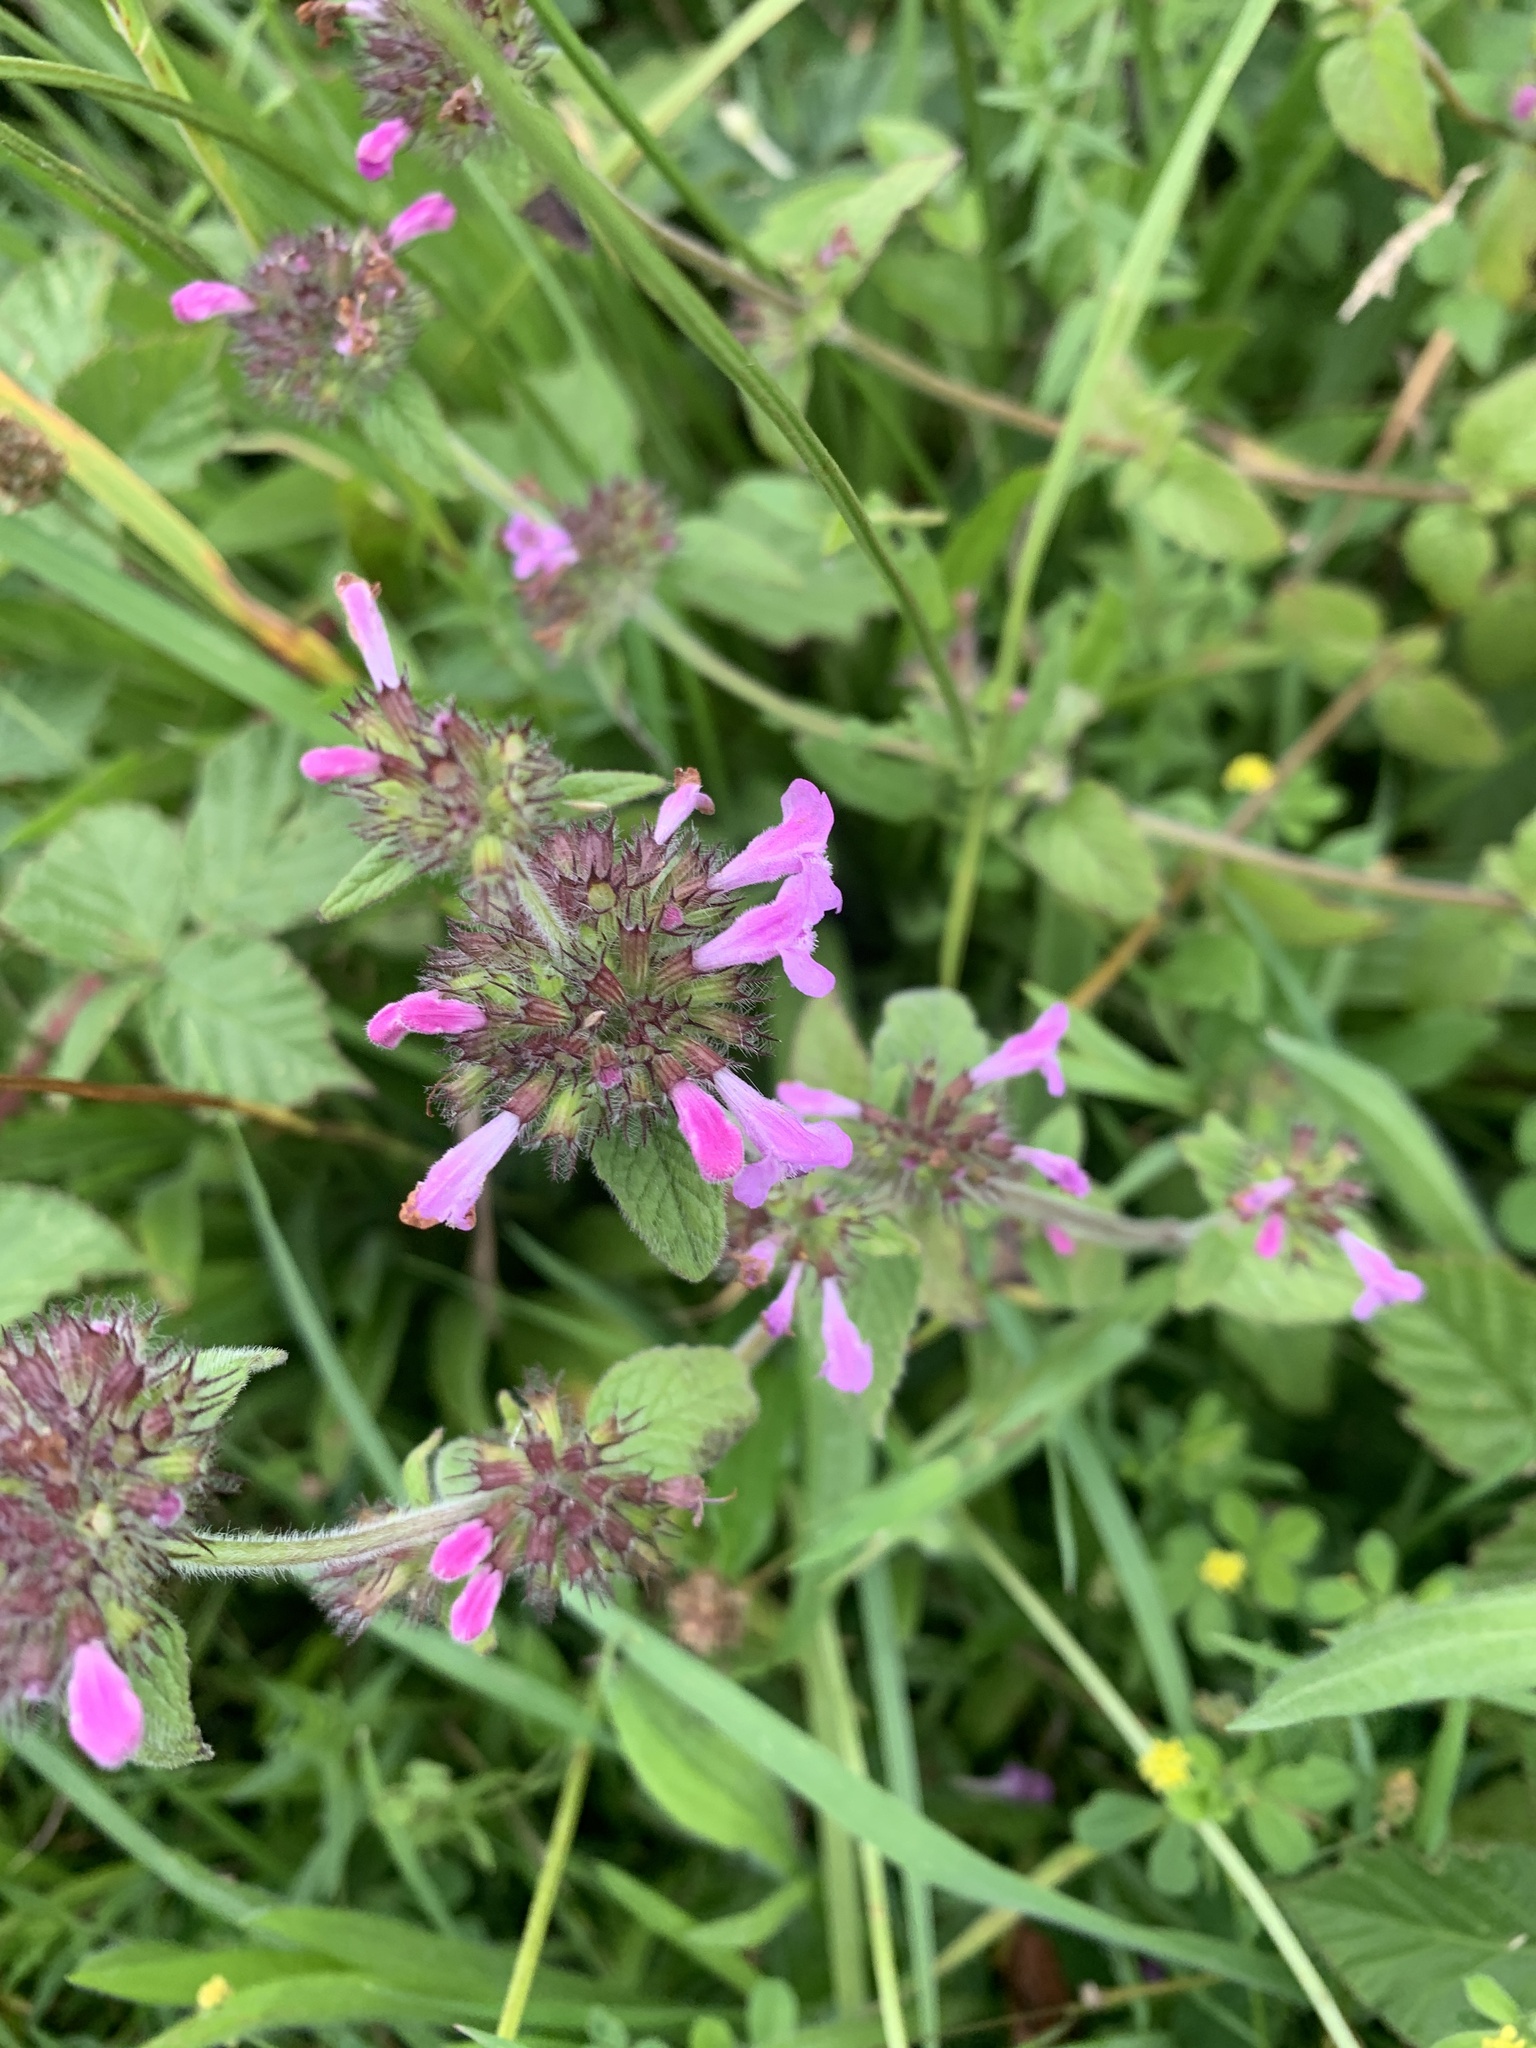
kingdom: Plantae
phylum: Tracheophyta
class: Magnoliopsida
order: Lamiales
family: Lamiaceae
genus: Clinopodium
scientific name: Clinopodium vulgare
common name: Wild basil
